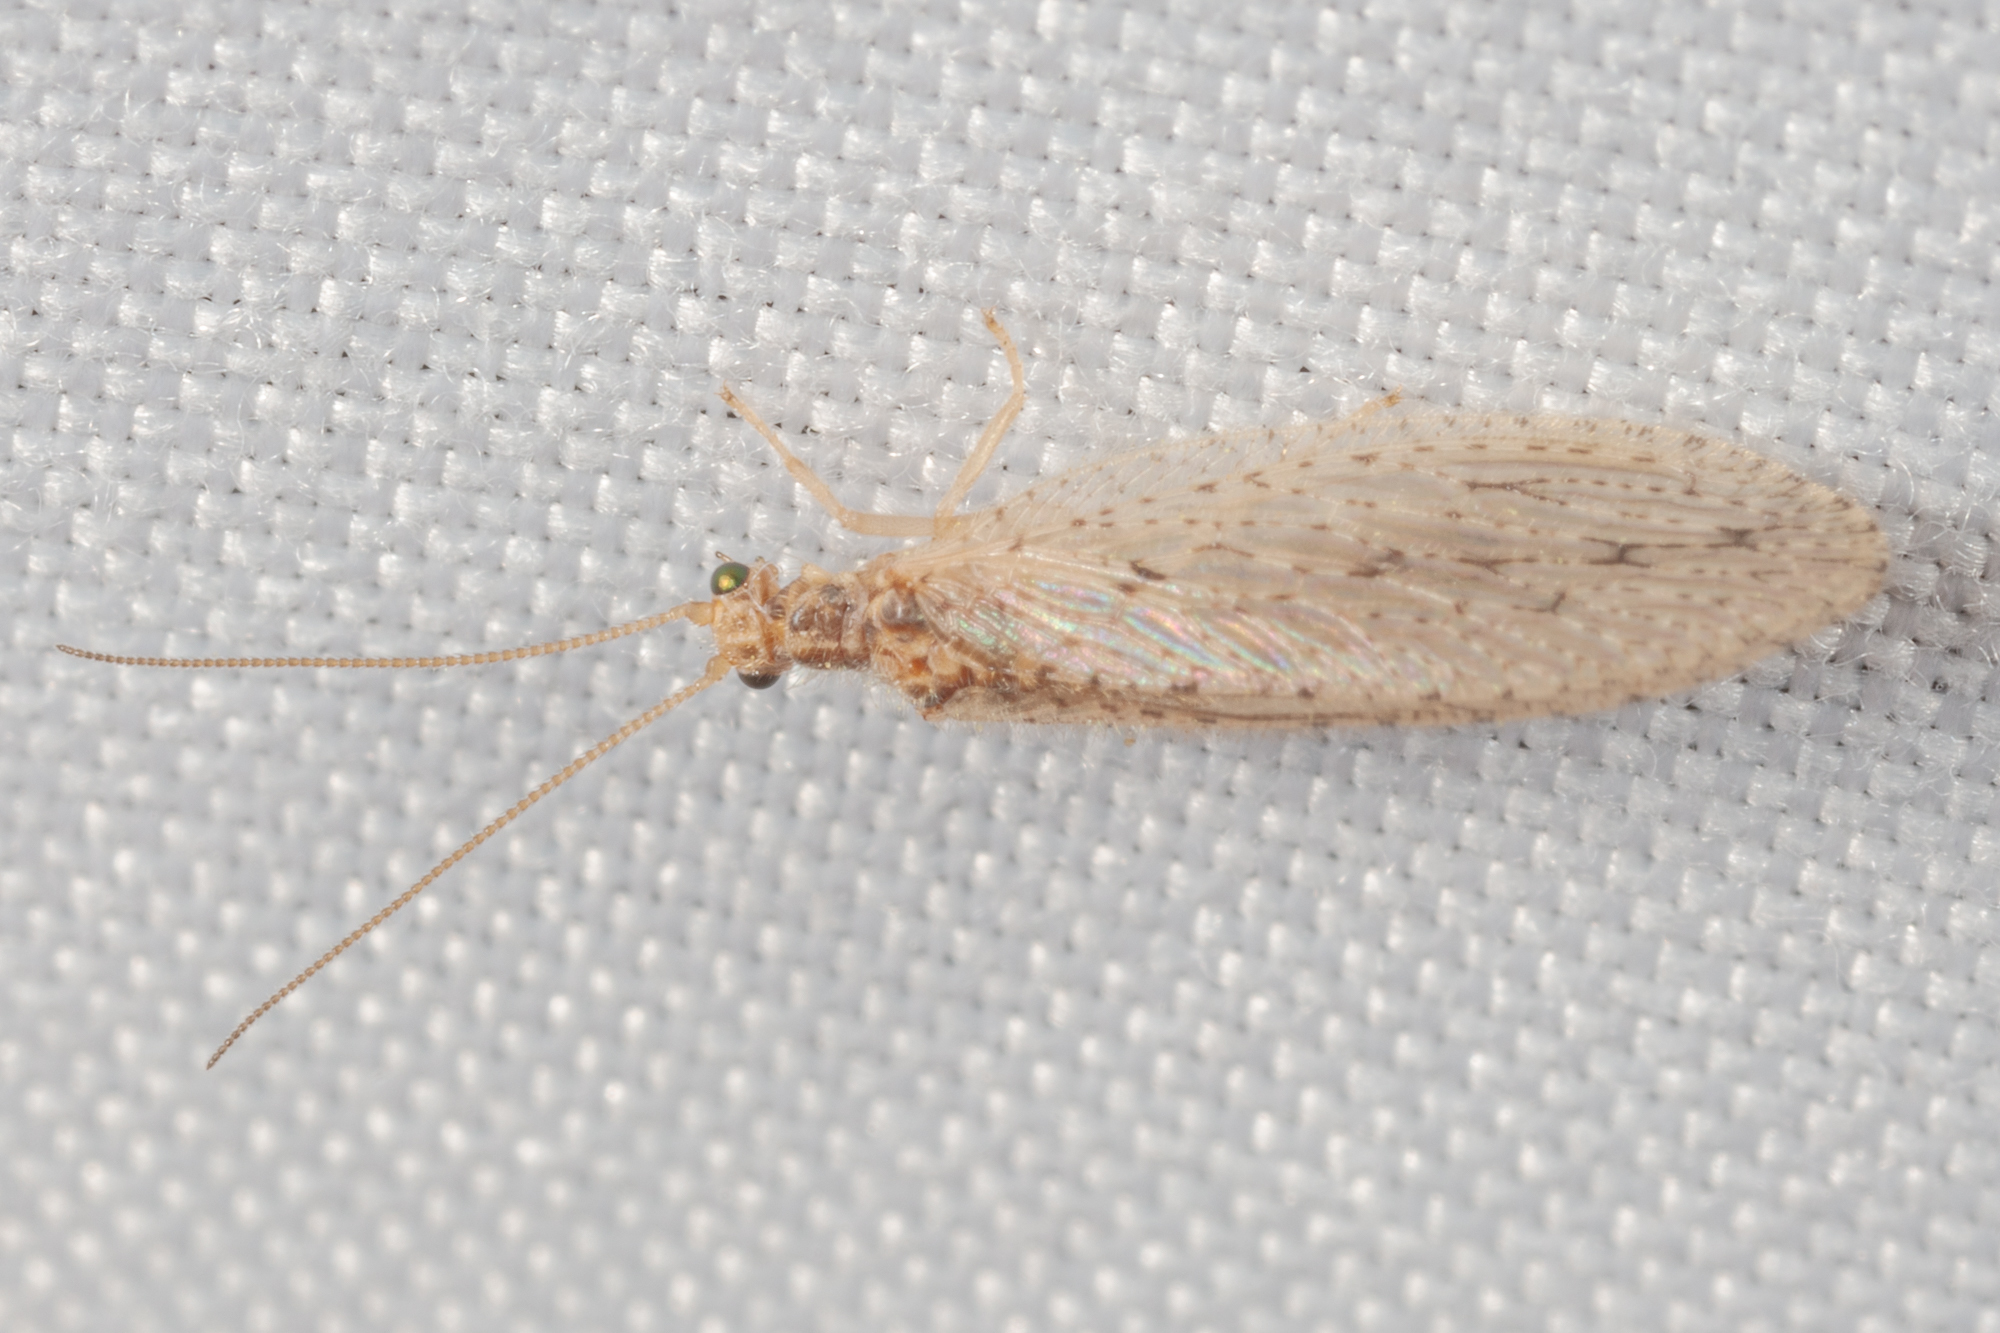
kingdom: Animalia
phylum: Arthropoda
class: Insecta
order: Neuroptera
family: Hemerobiidae
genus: Micromus
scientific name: Micromus subanticus
